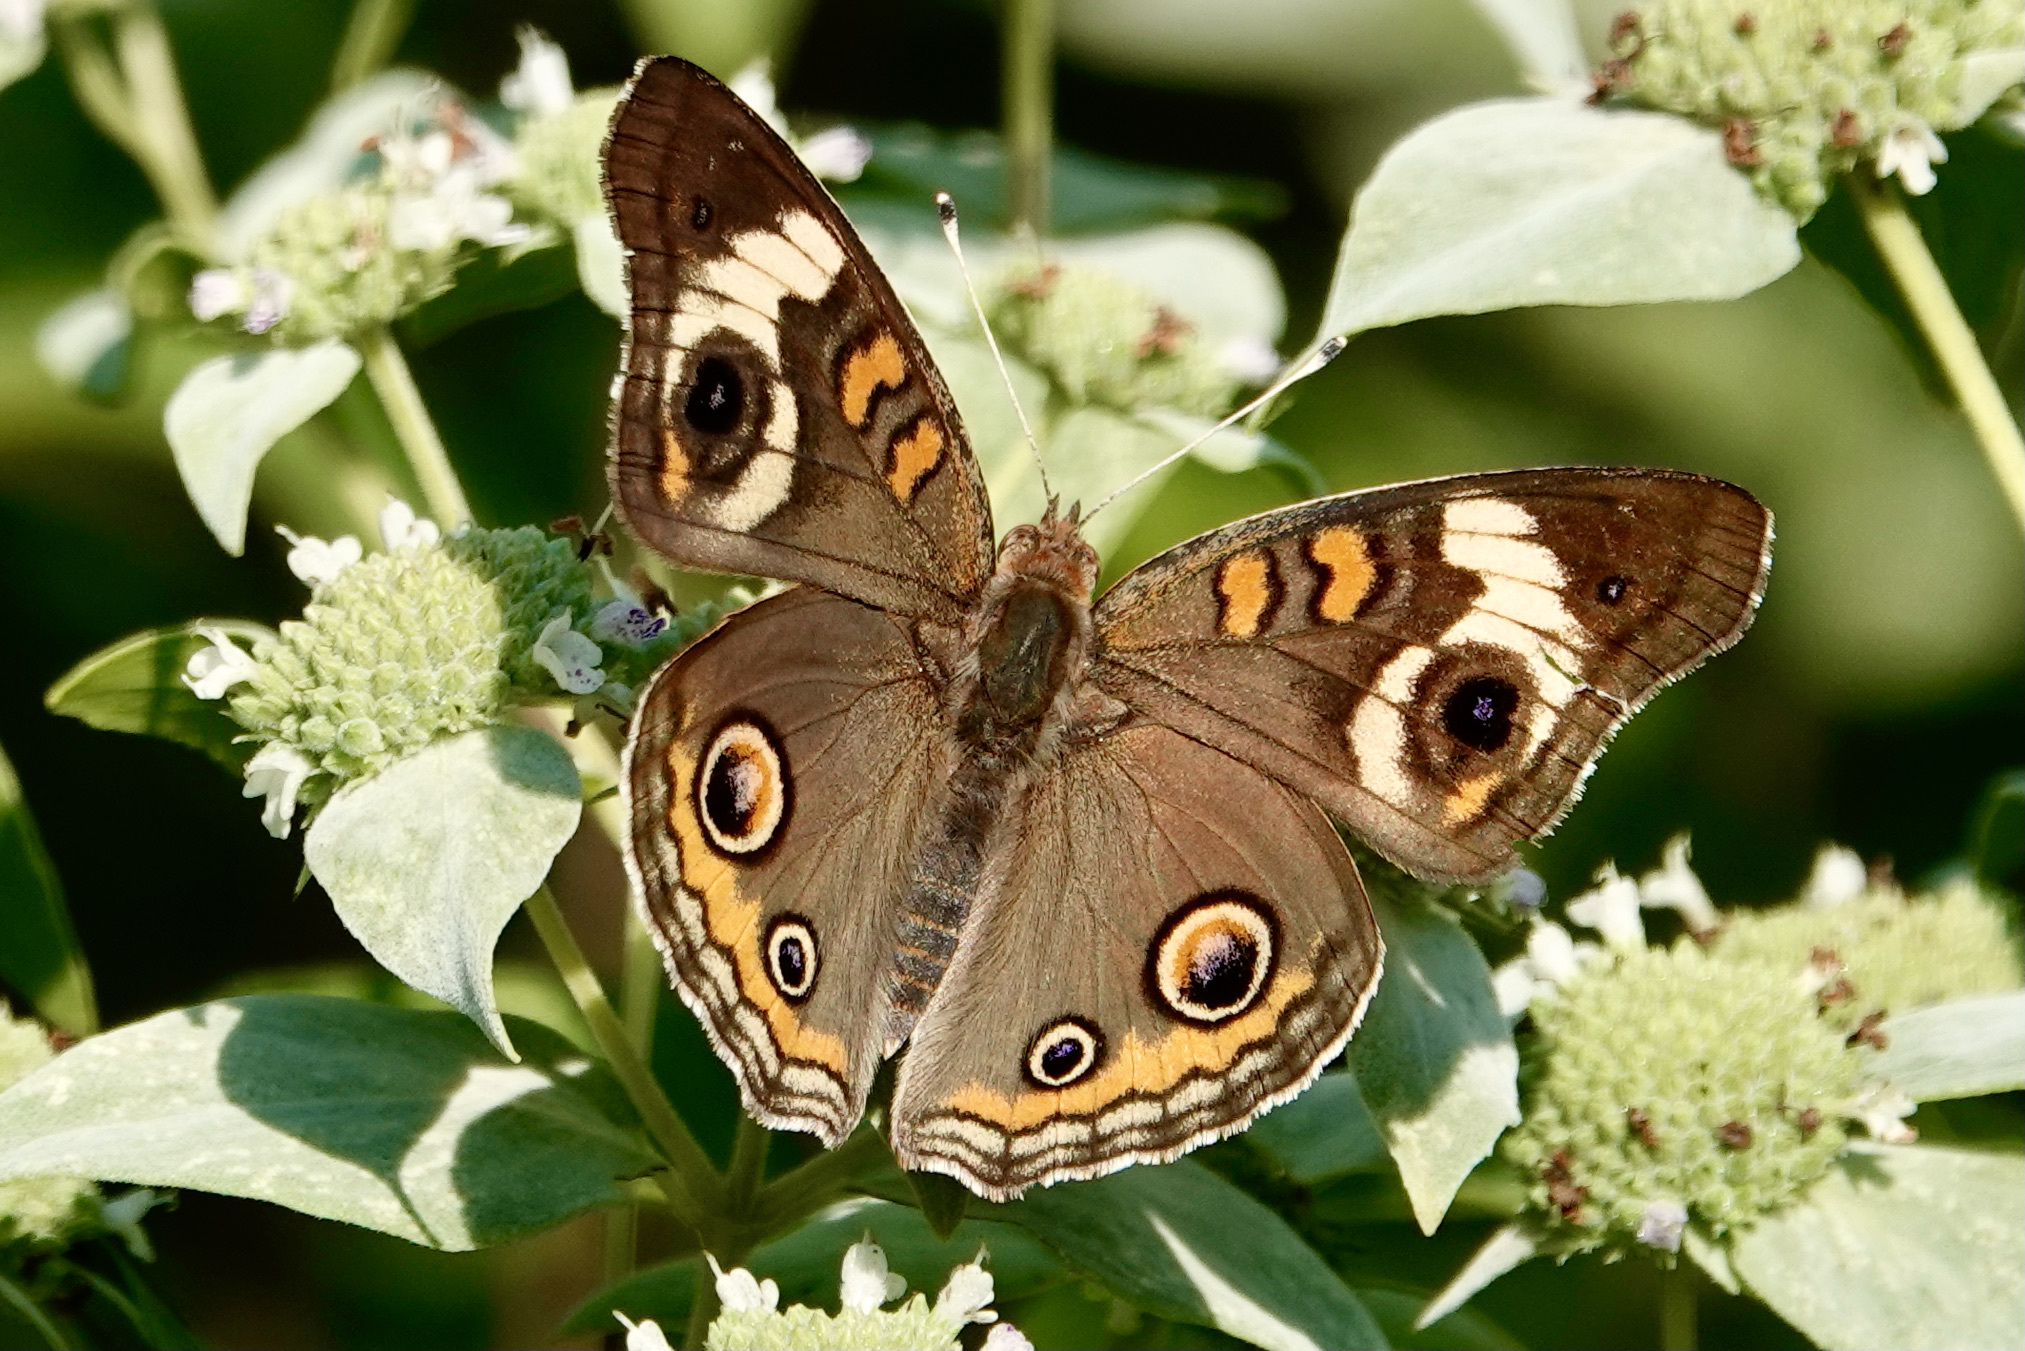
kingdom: Animalia
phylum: Arthropoda
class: Insecta
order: Lepidoptera
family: Nymphalidae
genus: Junonia
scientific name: Junonia coenia
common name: Common buckeye
